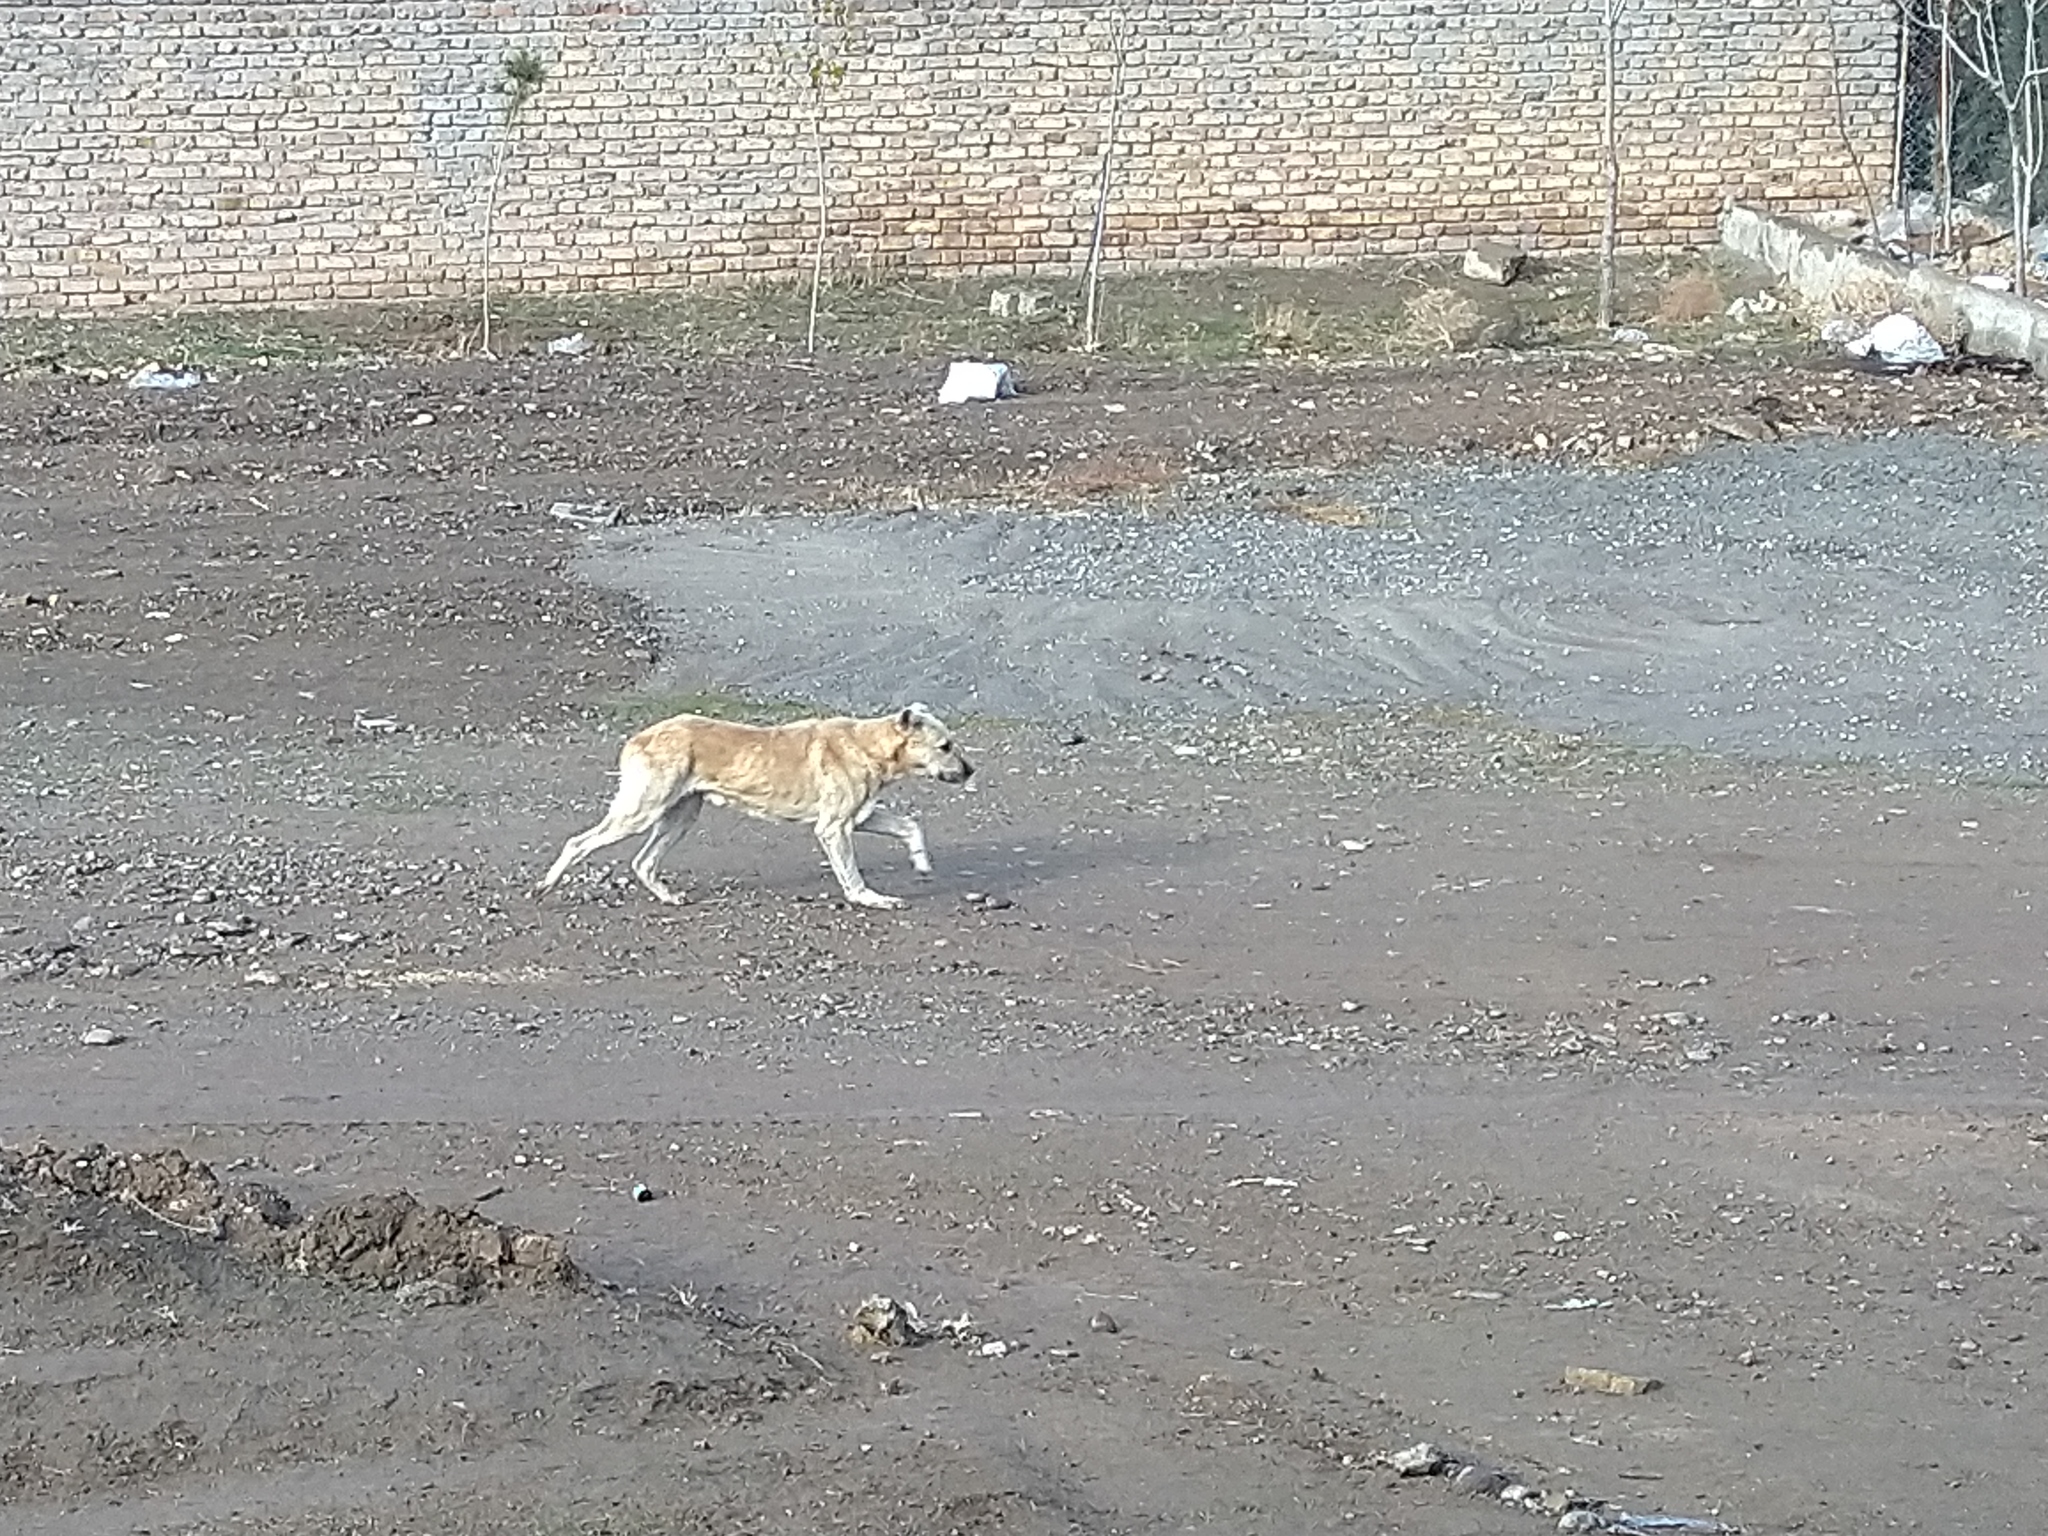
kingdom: Animalia
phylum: Chordata
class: Mammalia
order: Carnivora
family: Canidae
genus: Canis
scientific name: Canis lupus
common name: Gray wolf
